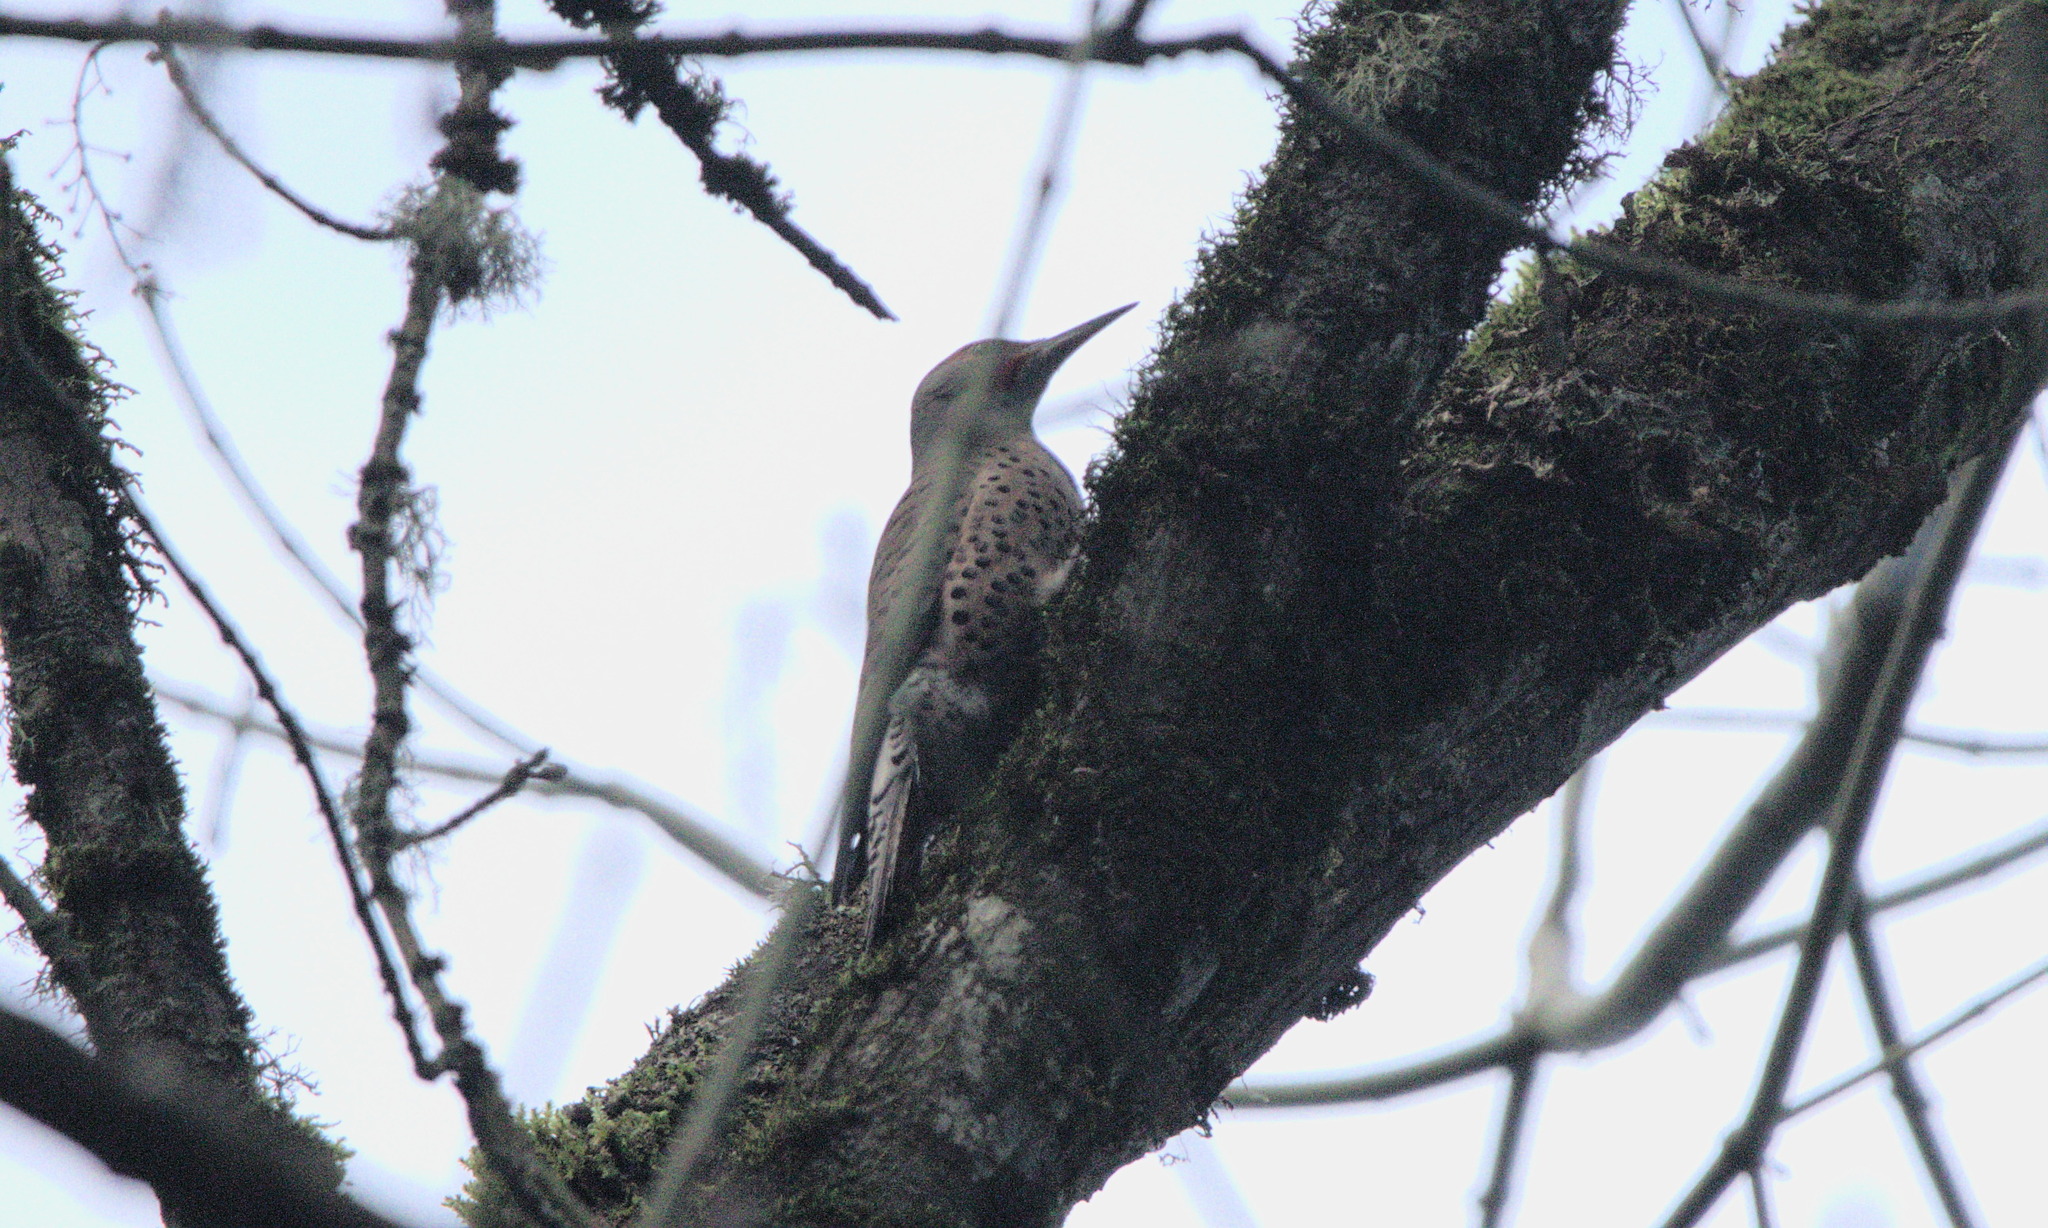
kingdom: Animalia
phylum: Chordata
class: Aves
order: Piciformes
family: Picidae
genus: Colaptes
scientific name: Colaptes auratus
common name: Northern flicker
